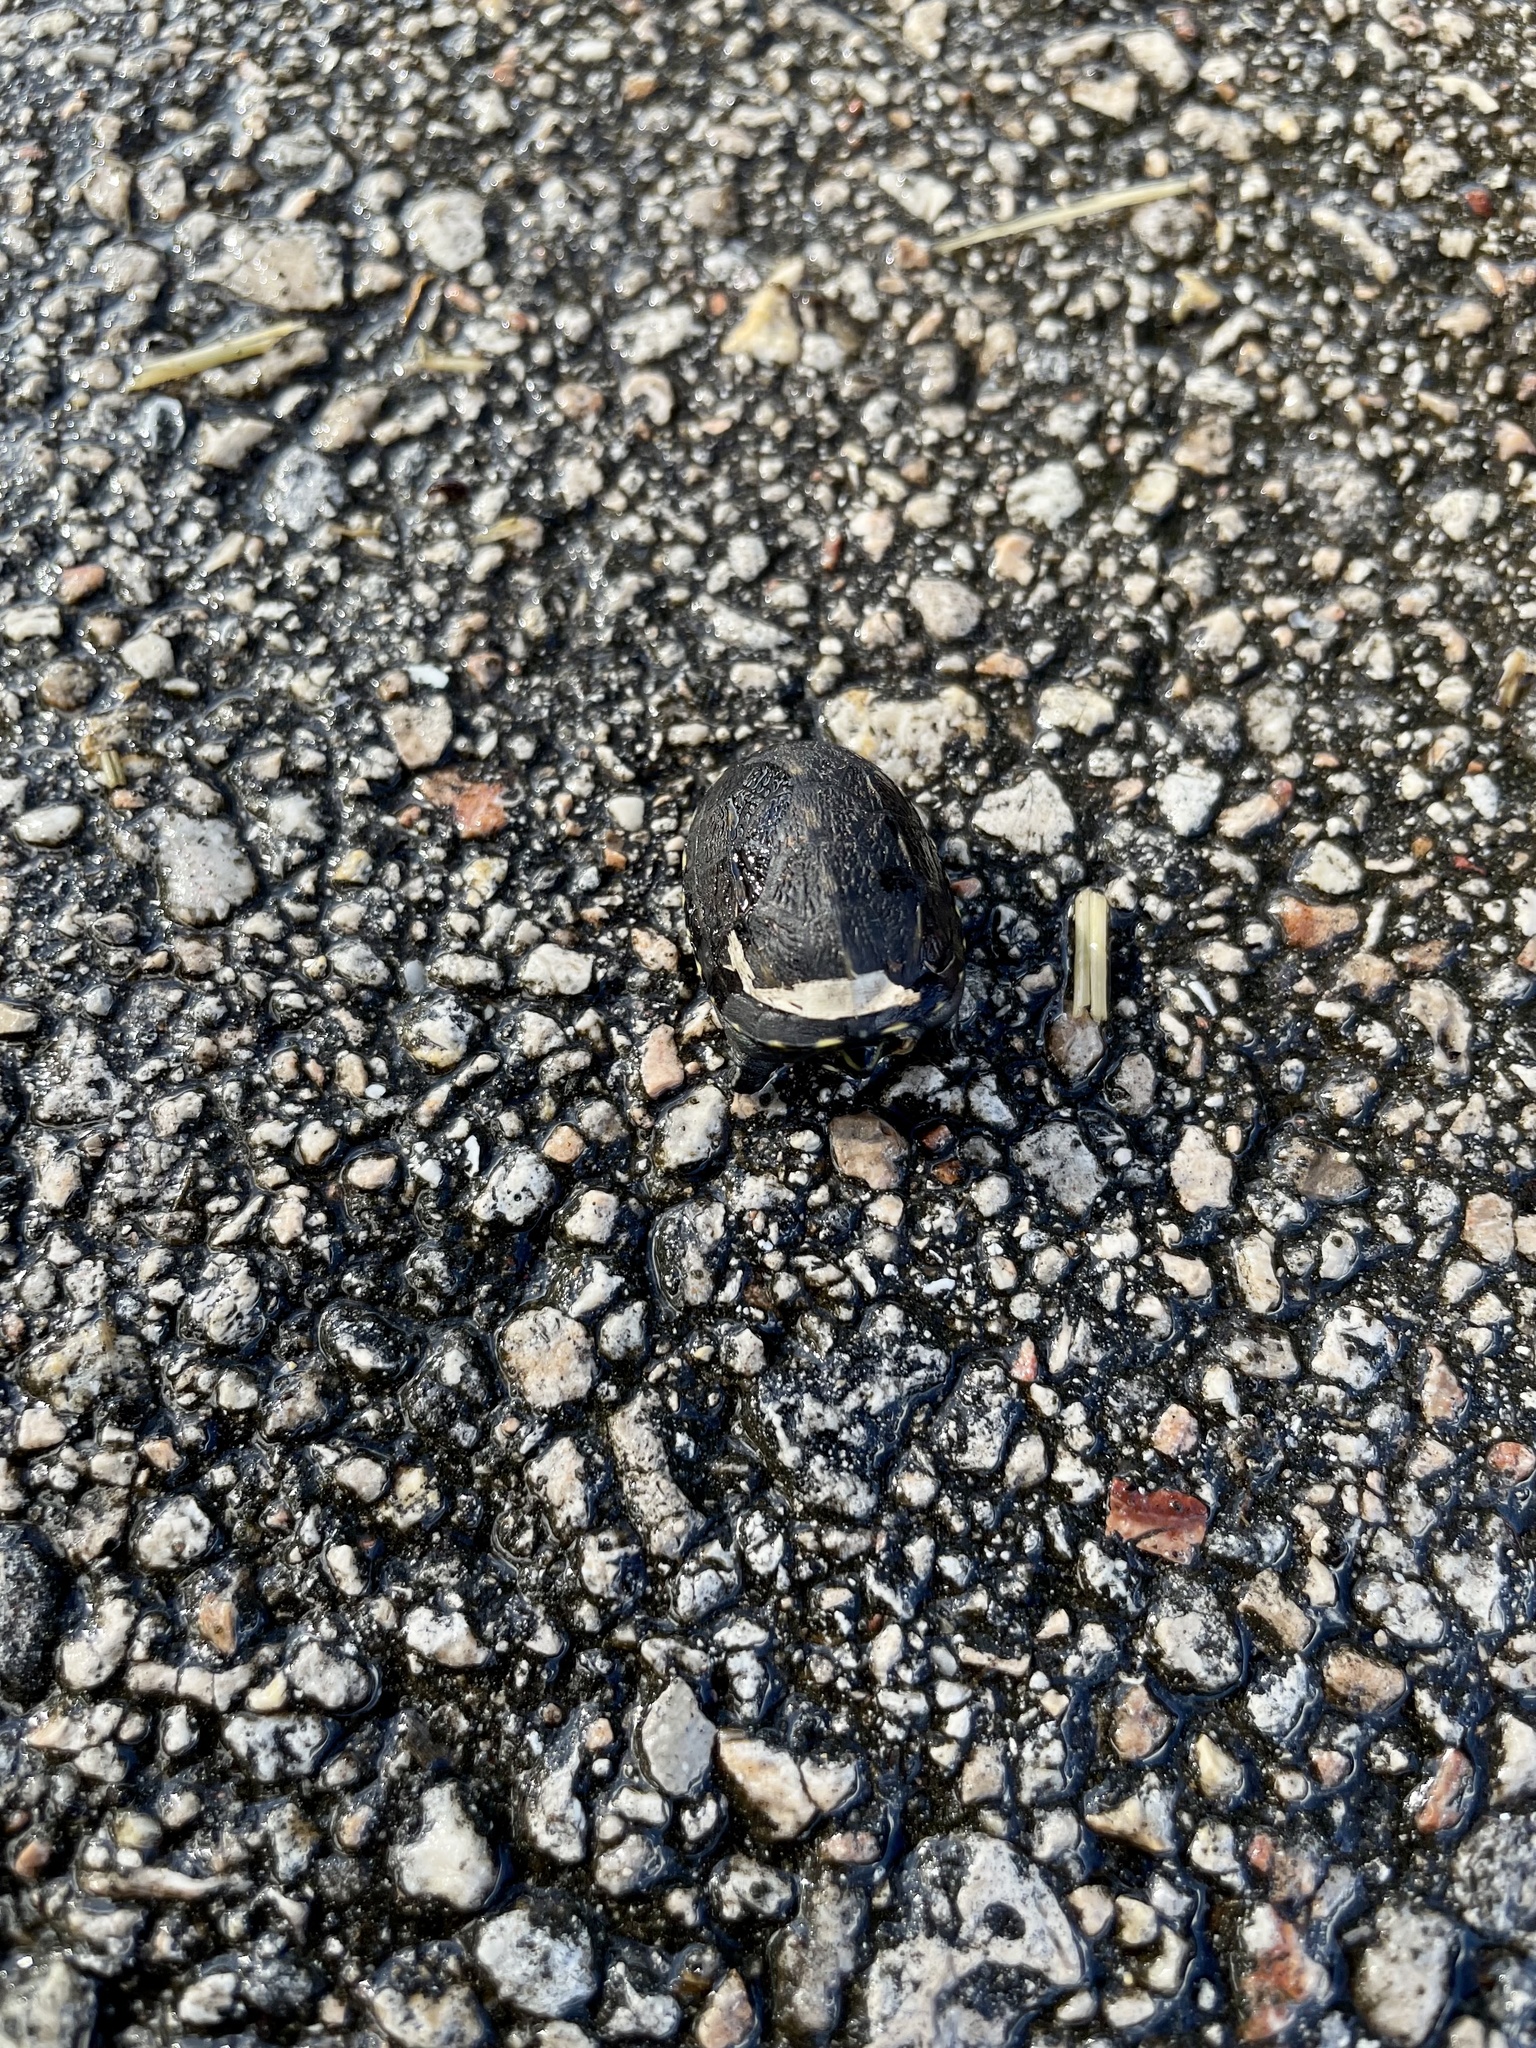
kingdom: Animalia
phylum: Chordata
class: Testudines
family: Kinosternidae
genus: Kinosternon
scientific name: Kinosternon baurii
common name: Striped mud turtle
